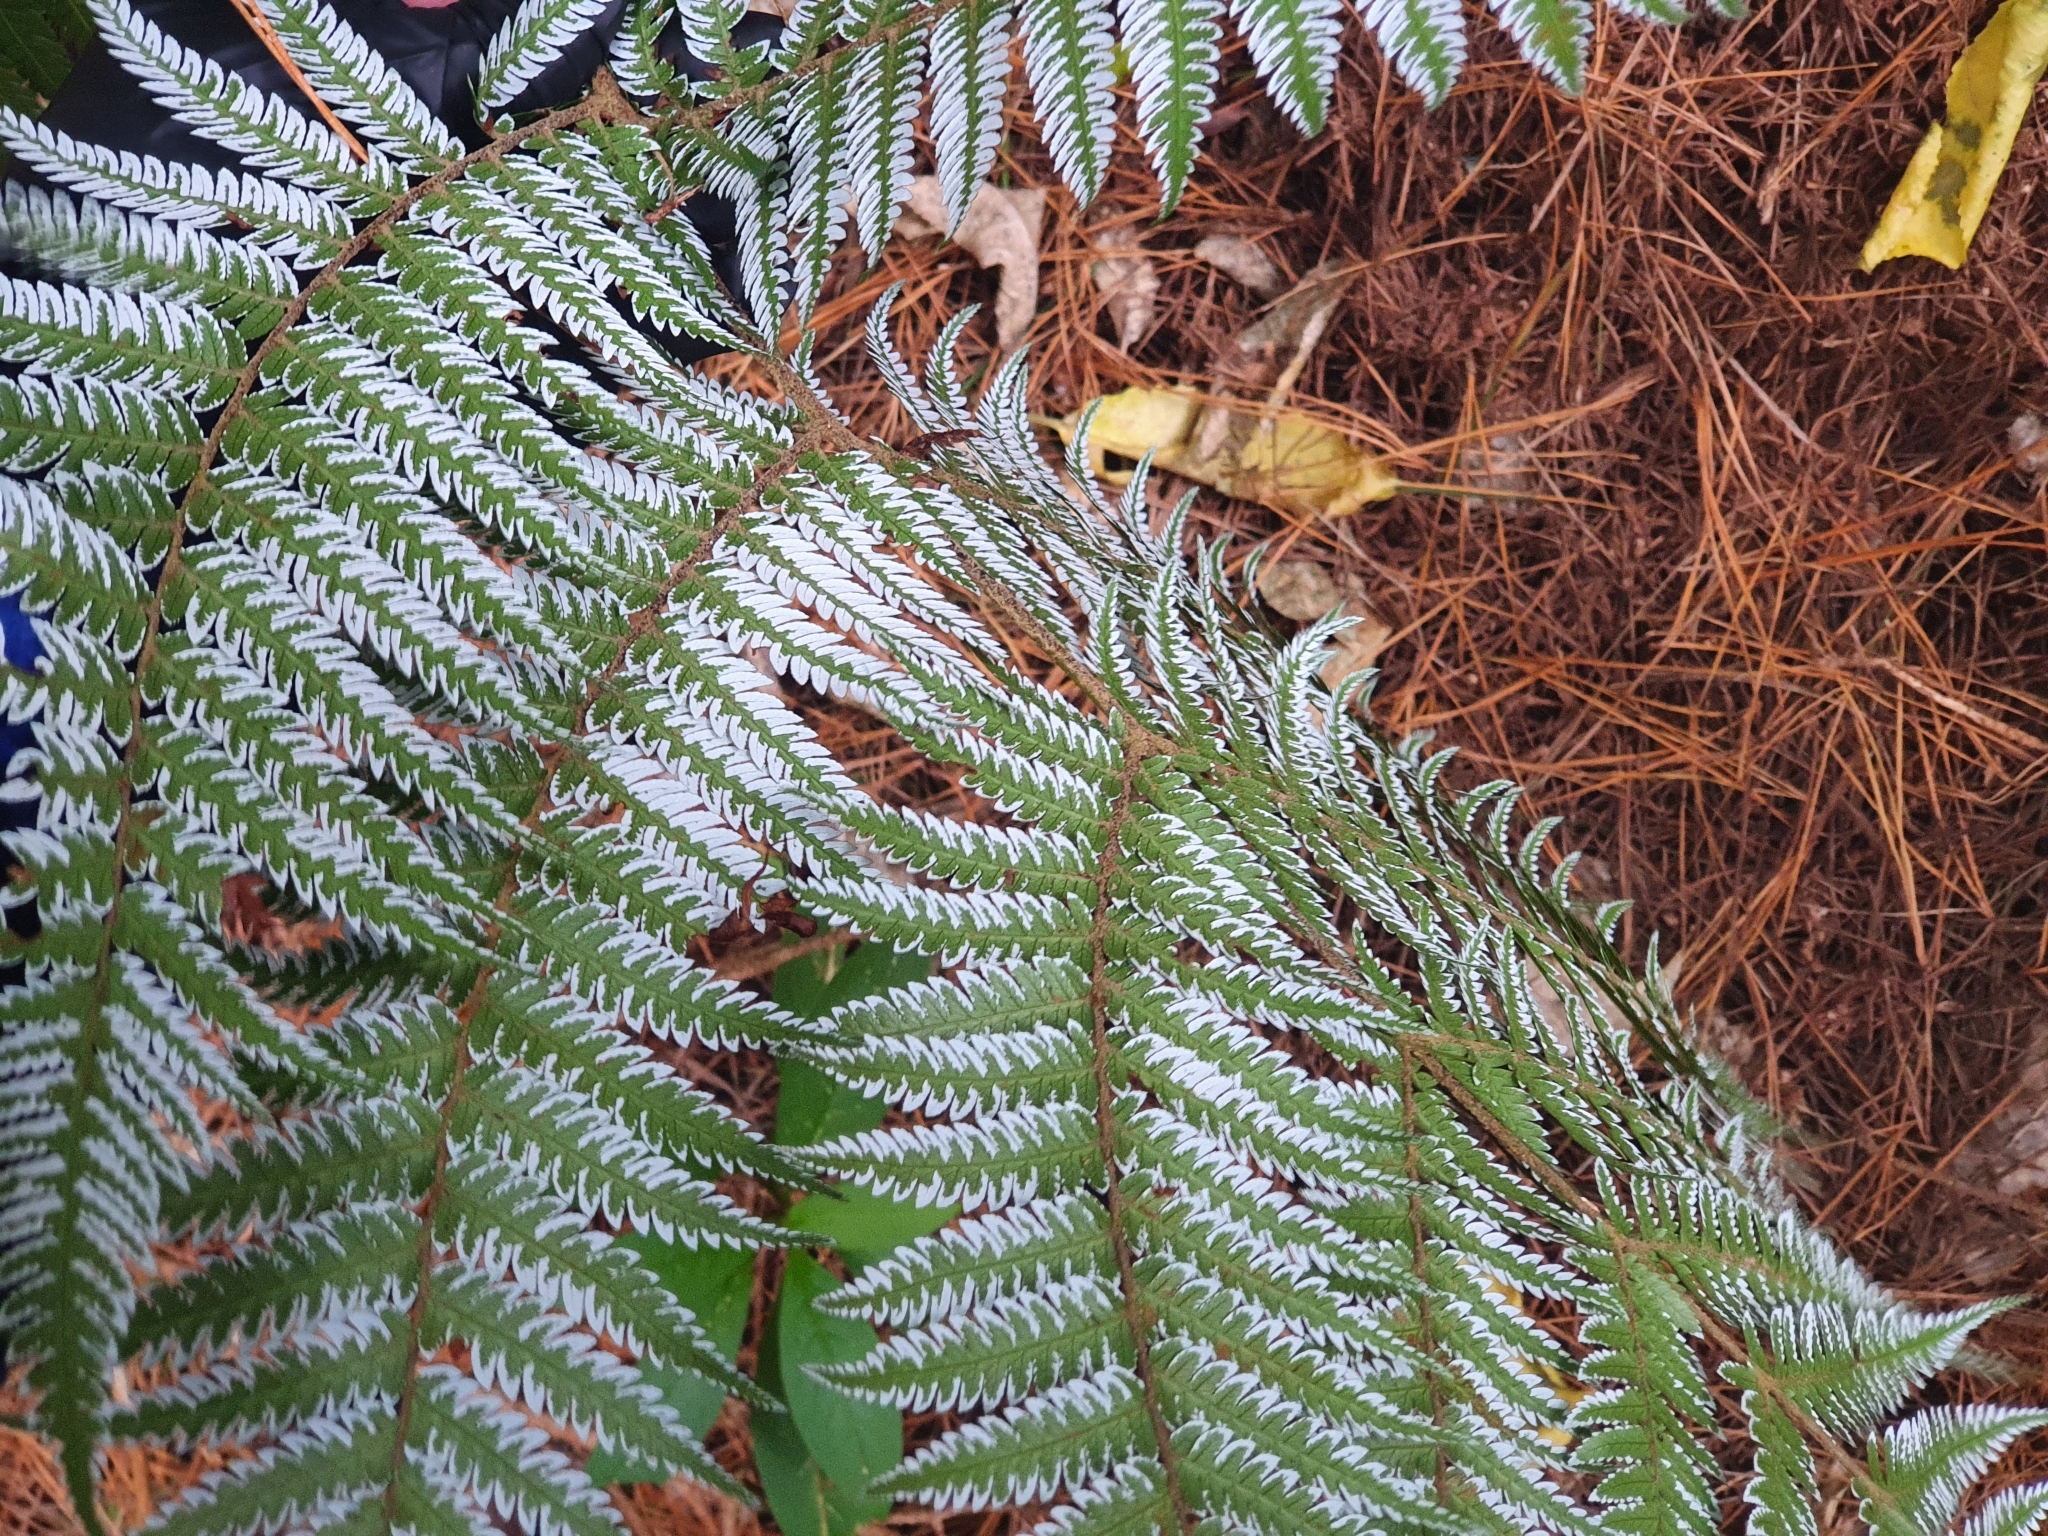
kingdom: Plantae
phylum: Tracheophyta
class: Polypodiopsida
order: Cyatheales
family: Cyatheaceae
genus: Alsophila
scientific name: Alsophila dealbata
